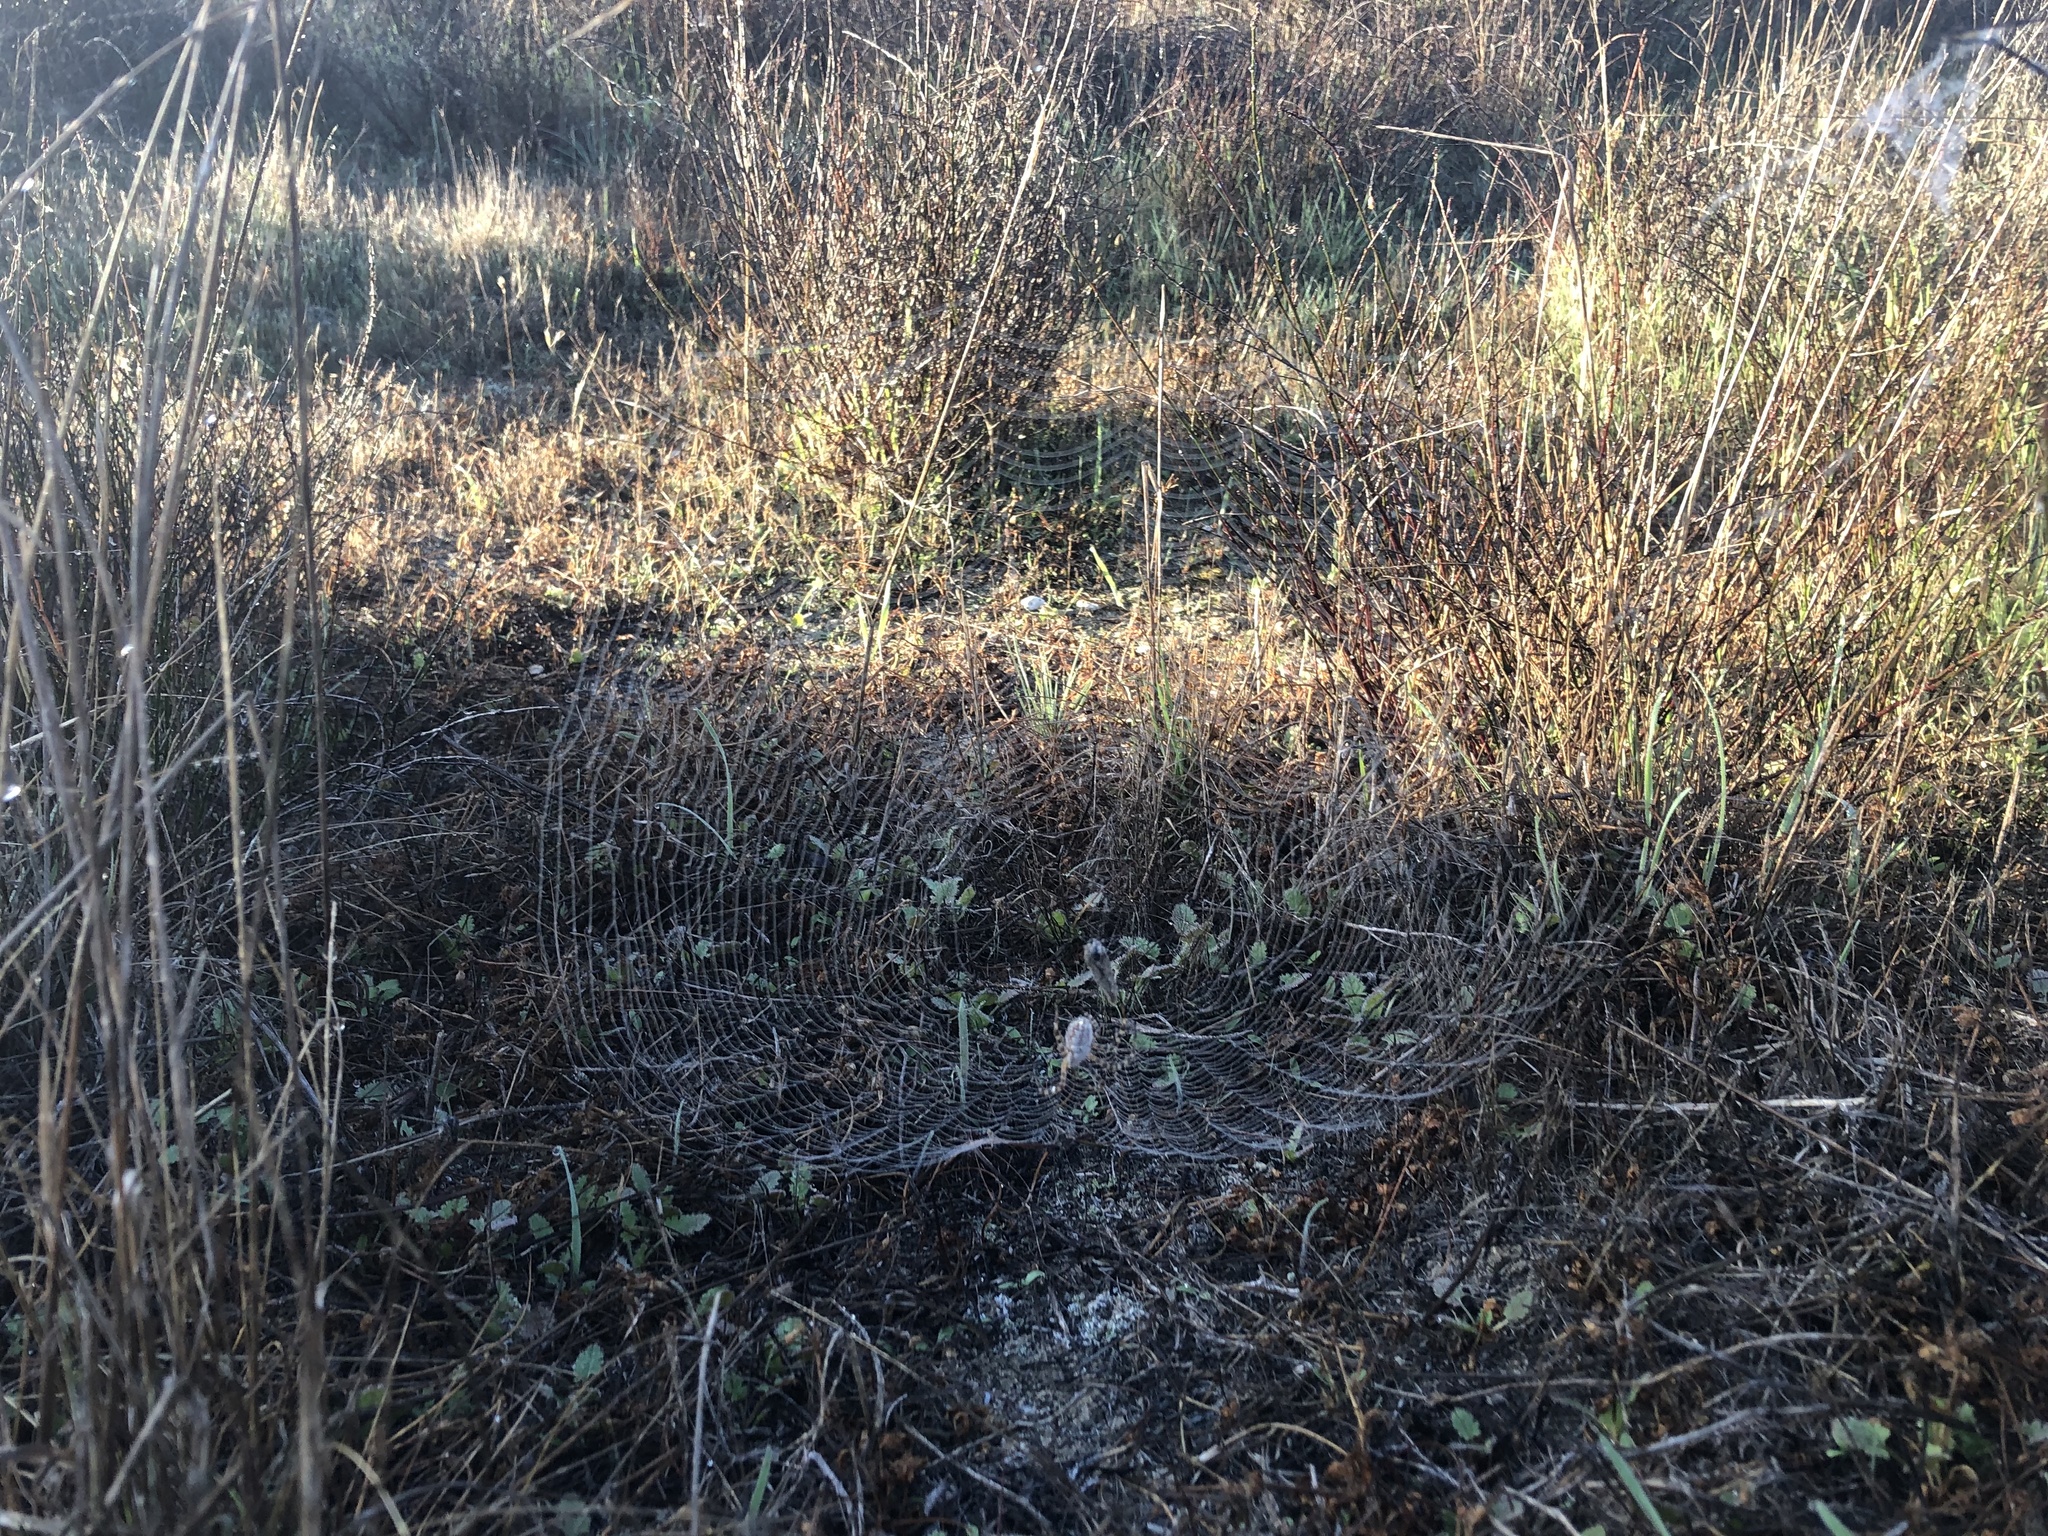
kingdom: Animalia
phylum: Arthropoda
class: Arachnida
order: Araneae
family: Araneidae
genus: Argiope
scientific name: Argiope trifasciata
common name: Banded garden spider
